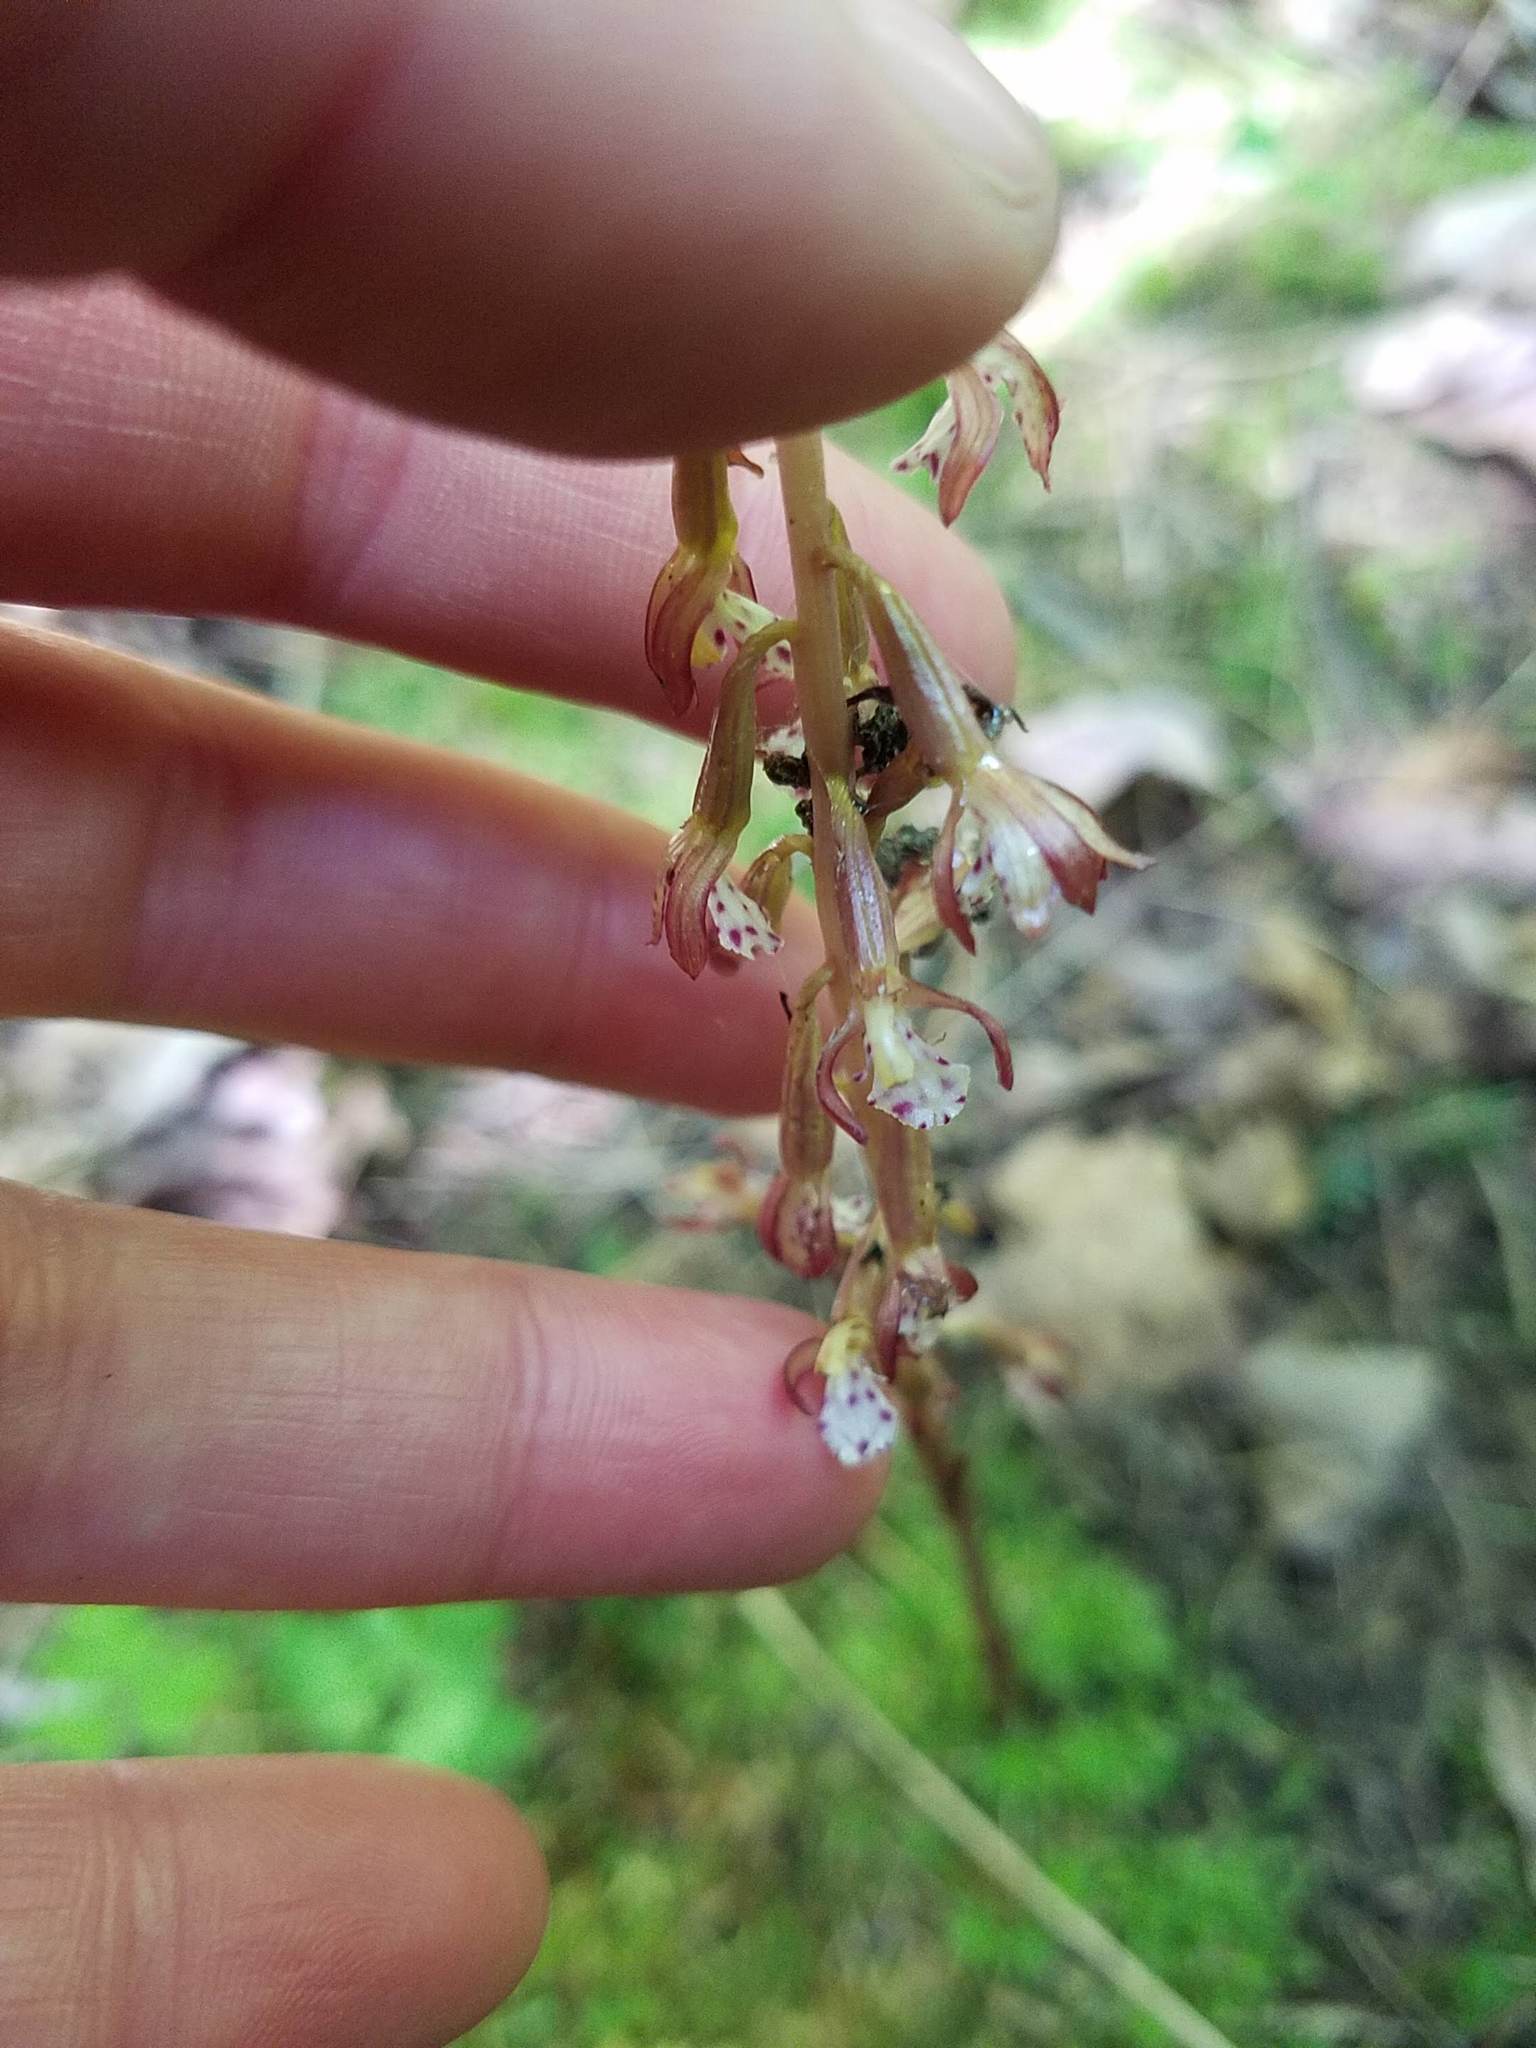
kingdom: Plantae
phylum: Tracheophyta
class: Liliopsida
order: Asparagales
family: Orchidaceae
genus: Corallorhiza
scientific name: Corallorhiza maculata
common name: Spotted coralroot
